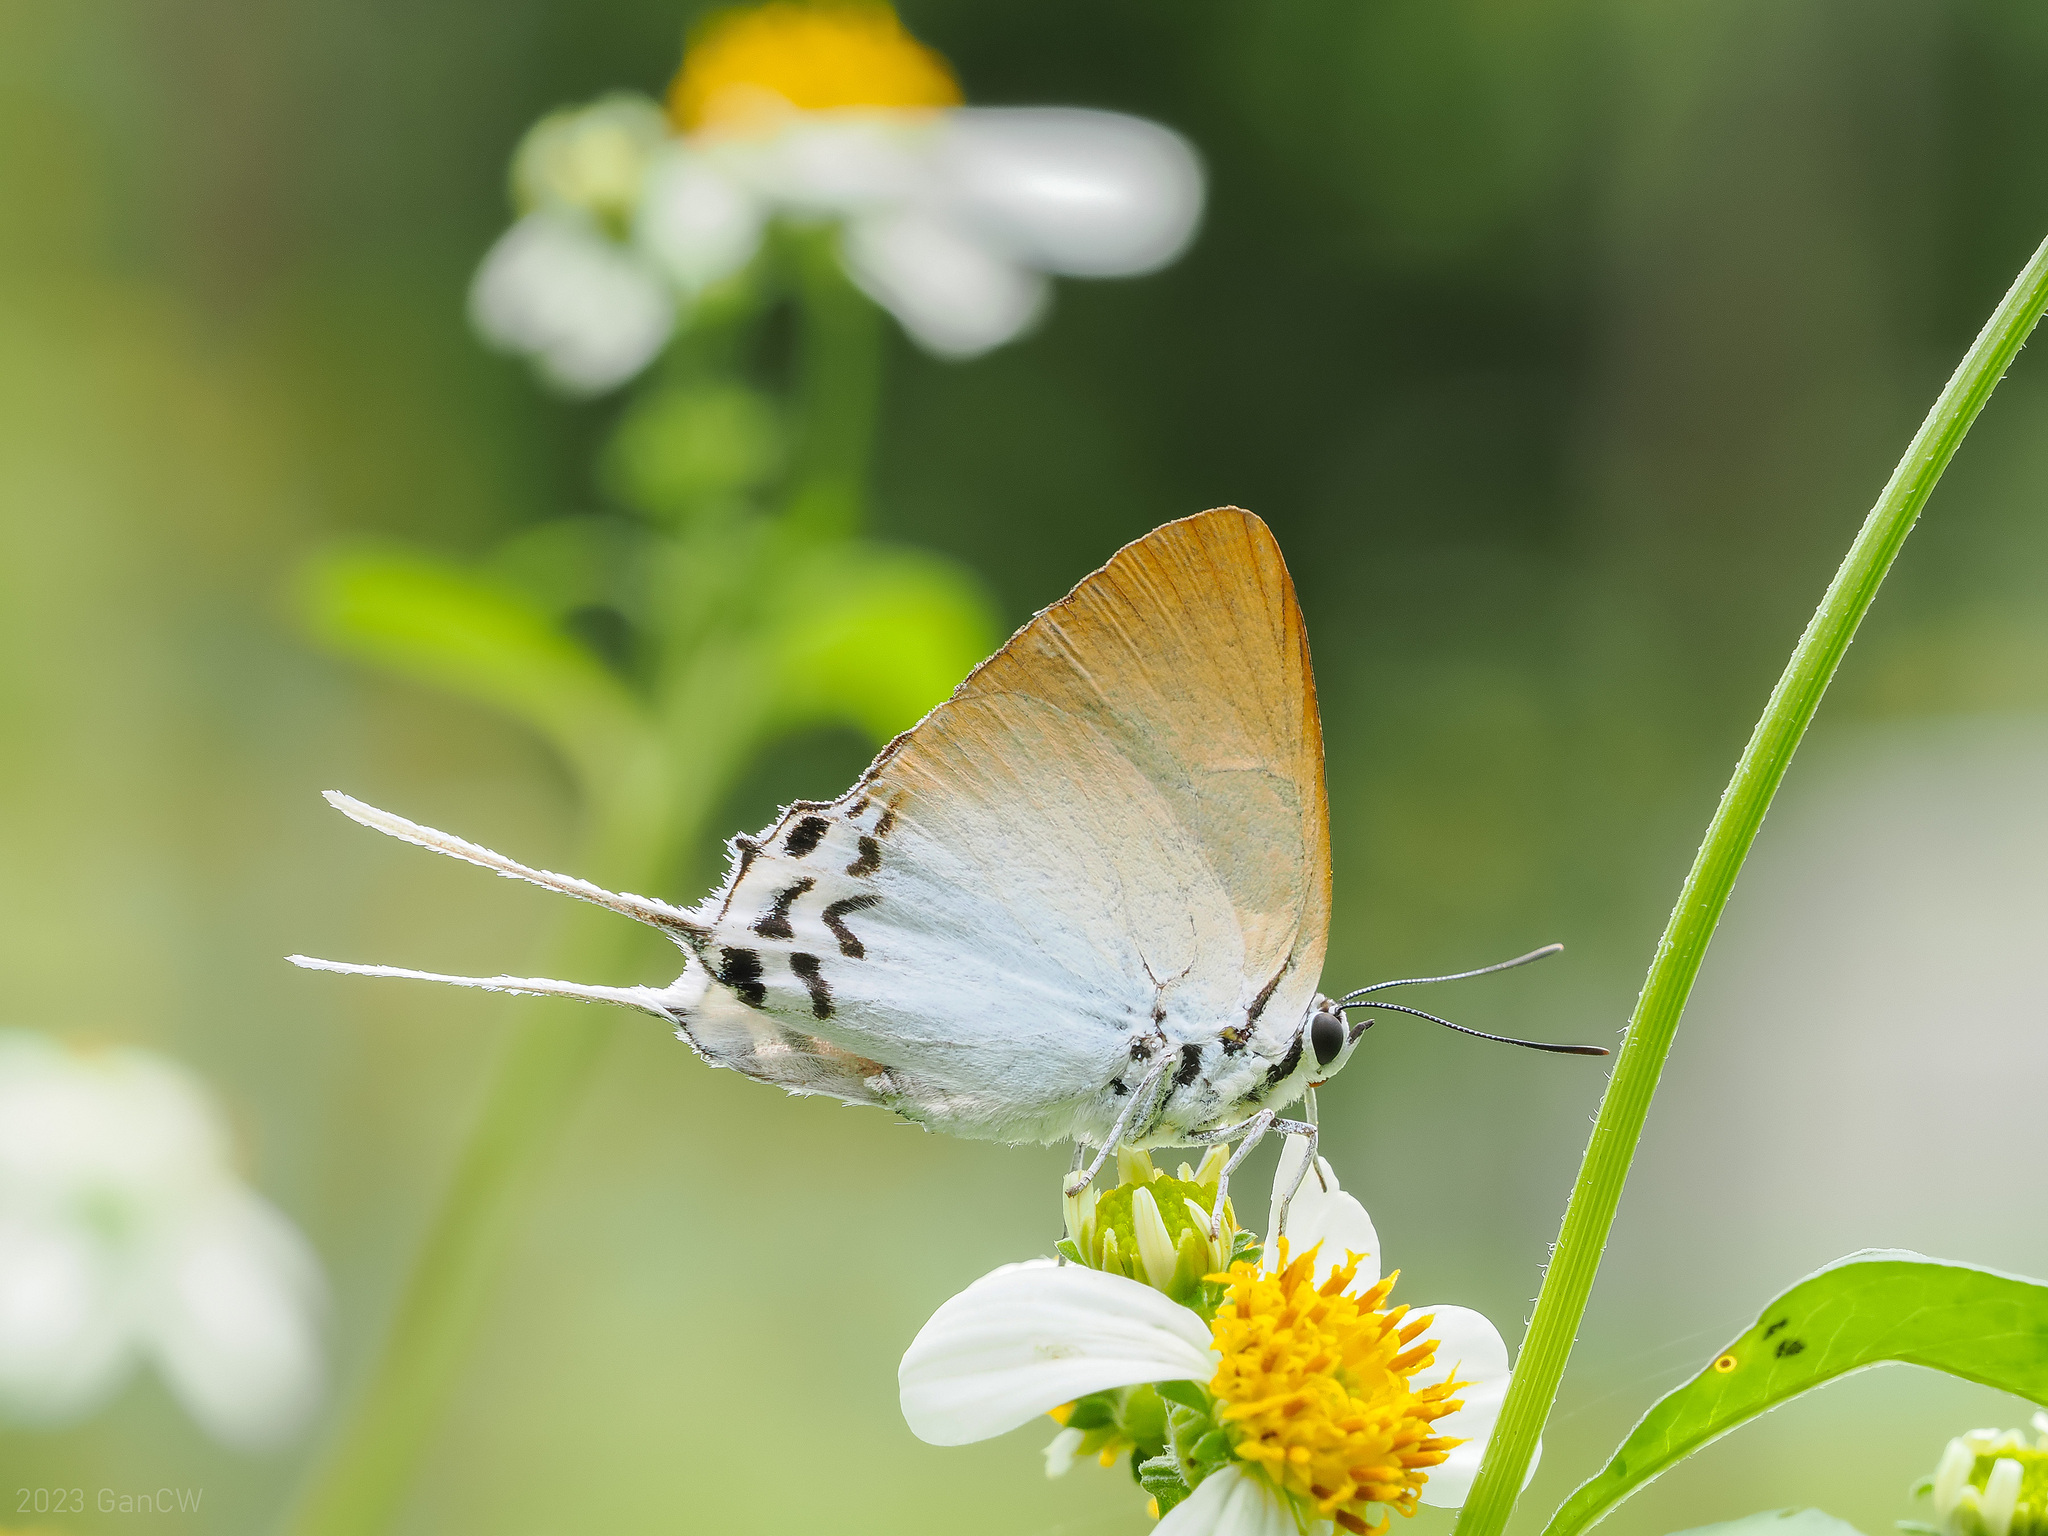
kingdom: Animalia
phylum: Arthropoda
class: Insecta
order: Lepidoptera
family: Lycaenidae
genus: Jacoona
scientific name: Jacoona anasuja
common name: Great imperial
